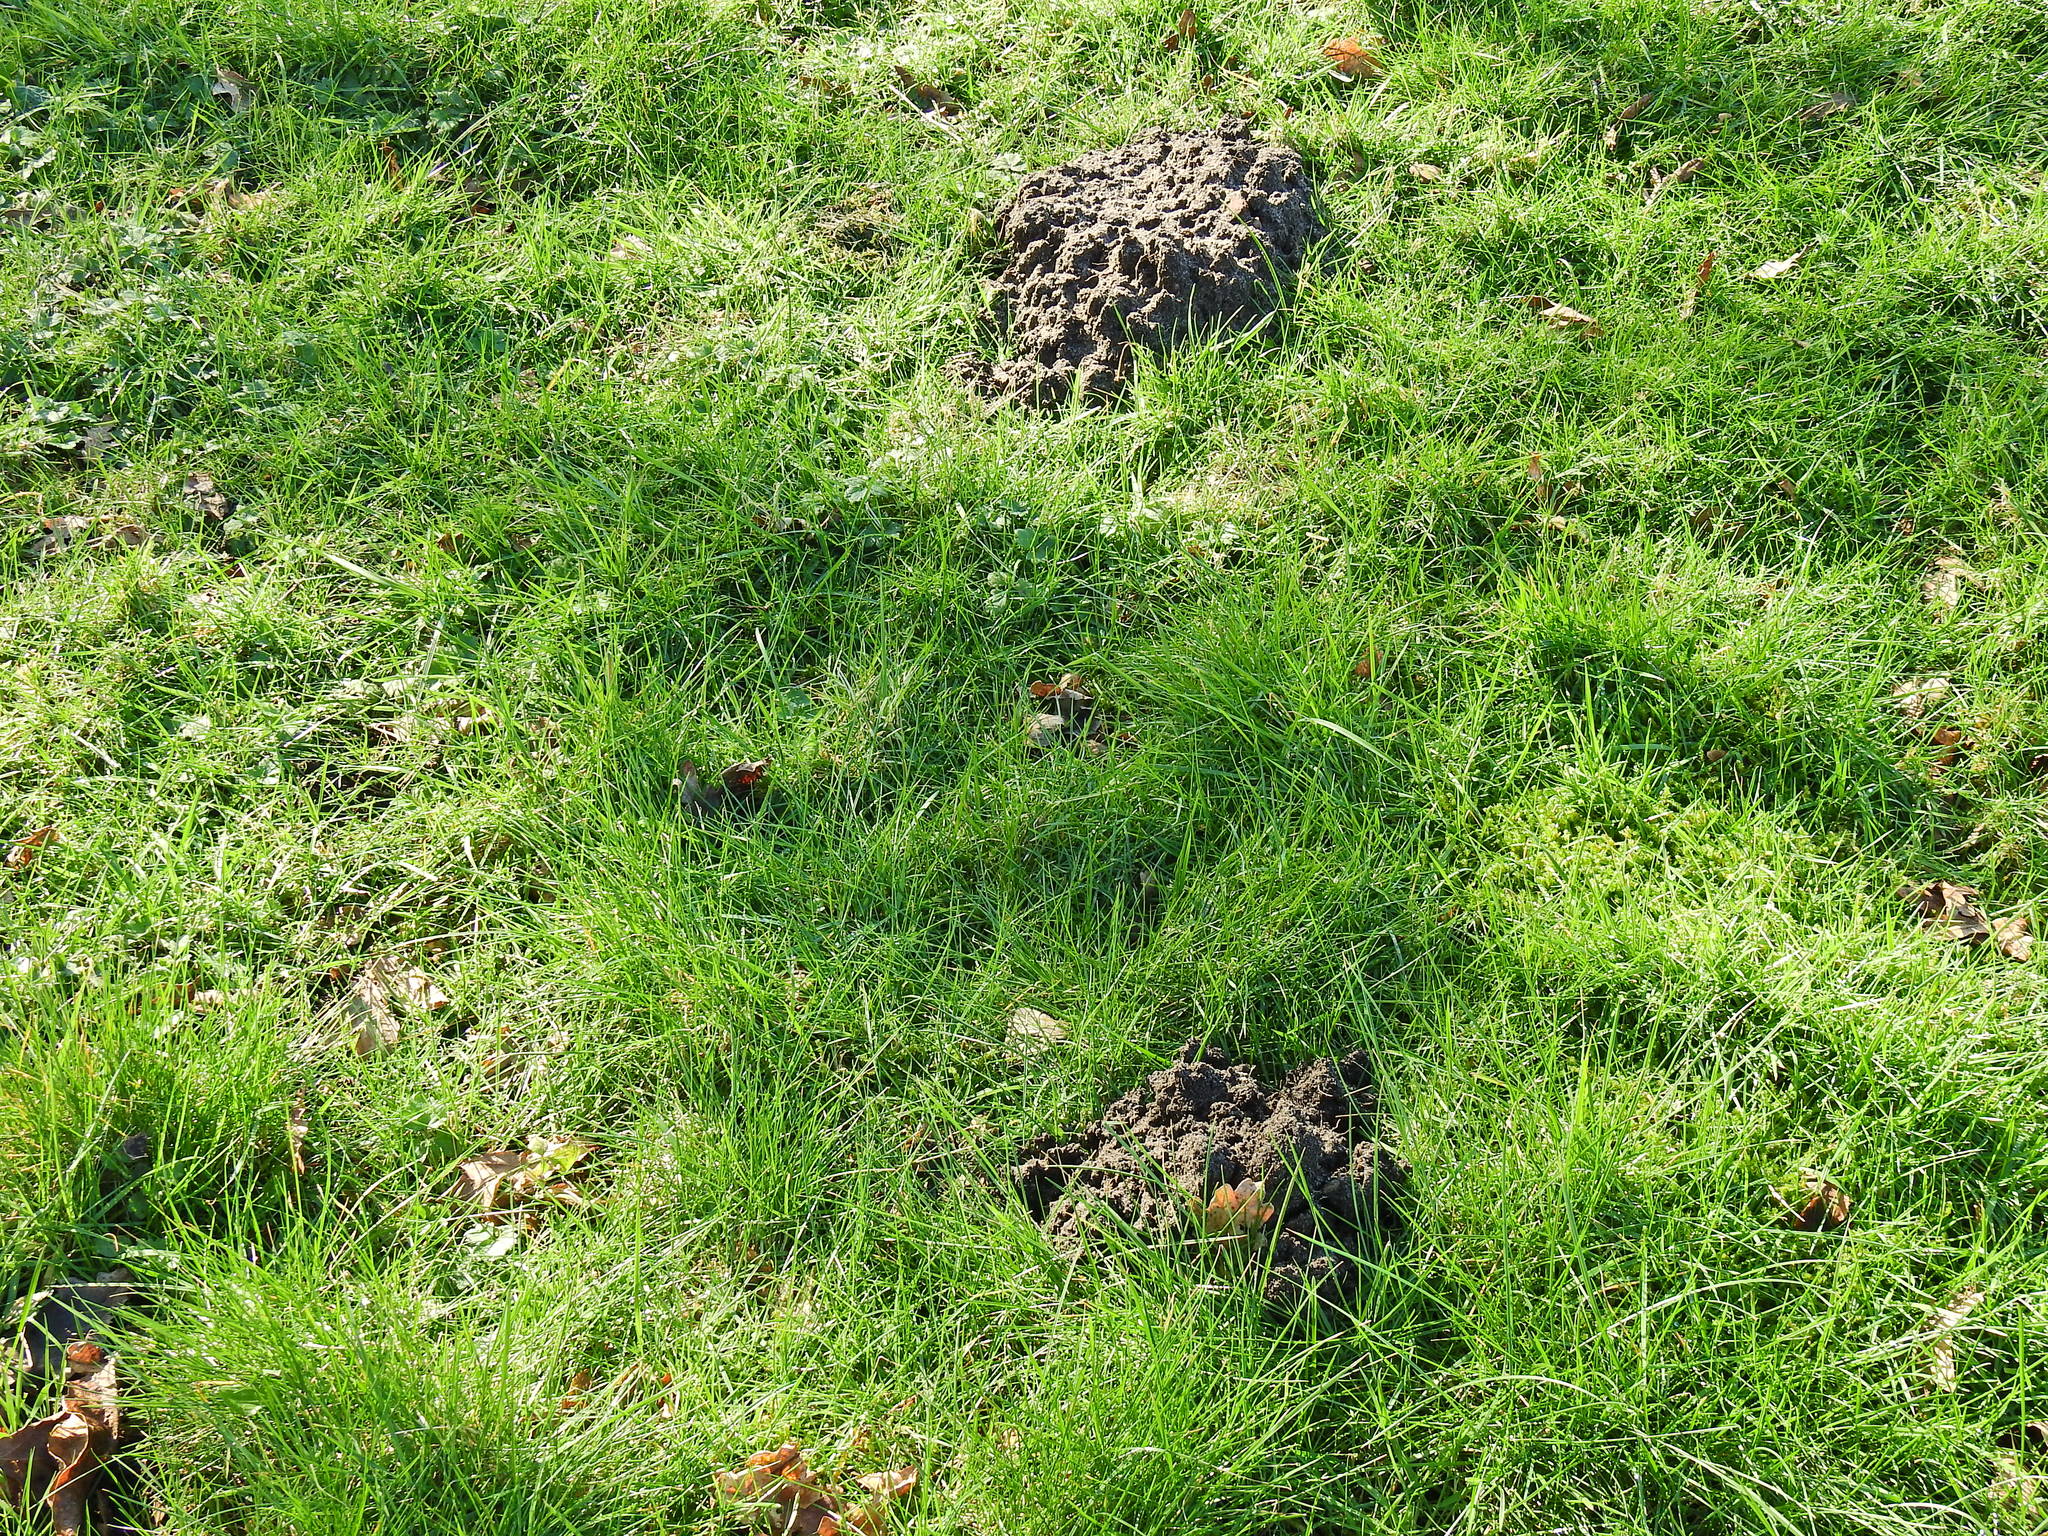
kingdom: Animalia
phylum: Chordata
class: Mammalia
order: Soricomorpha
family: Talpidae
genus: Talpa
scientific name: Talpa europaea
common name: European mole
